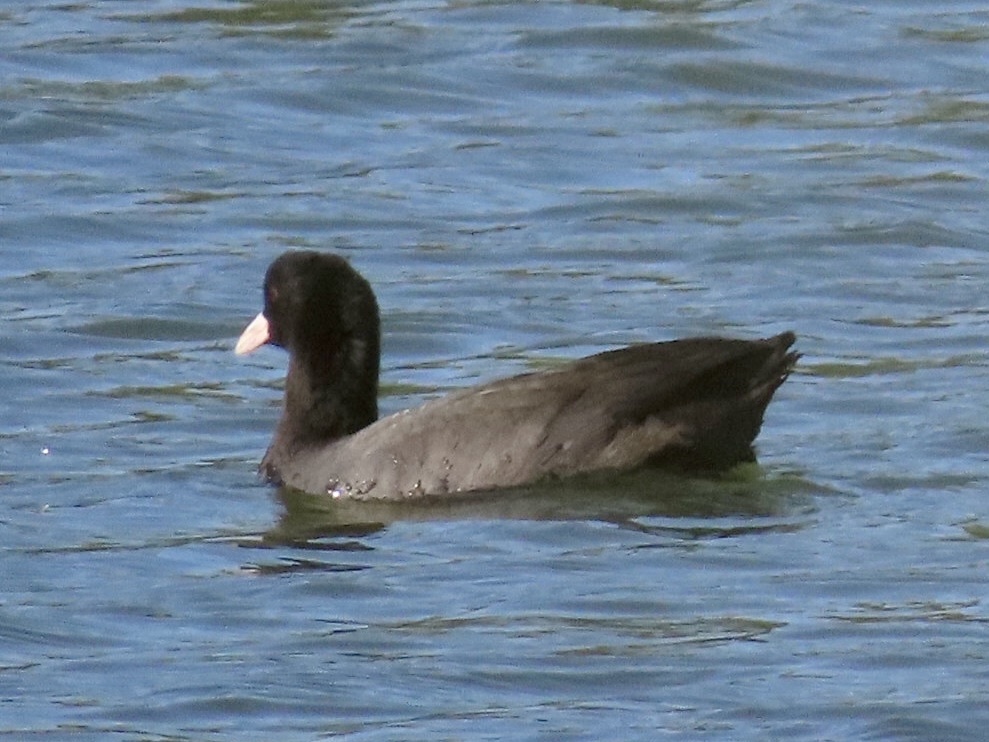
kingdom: Animalia
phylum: Chordata
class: Aves
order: Gruiformes
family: Rallidae
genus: Fulica
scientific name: Fulica atra
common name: Eurasian coot
